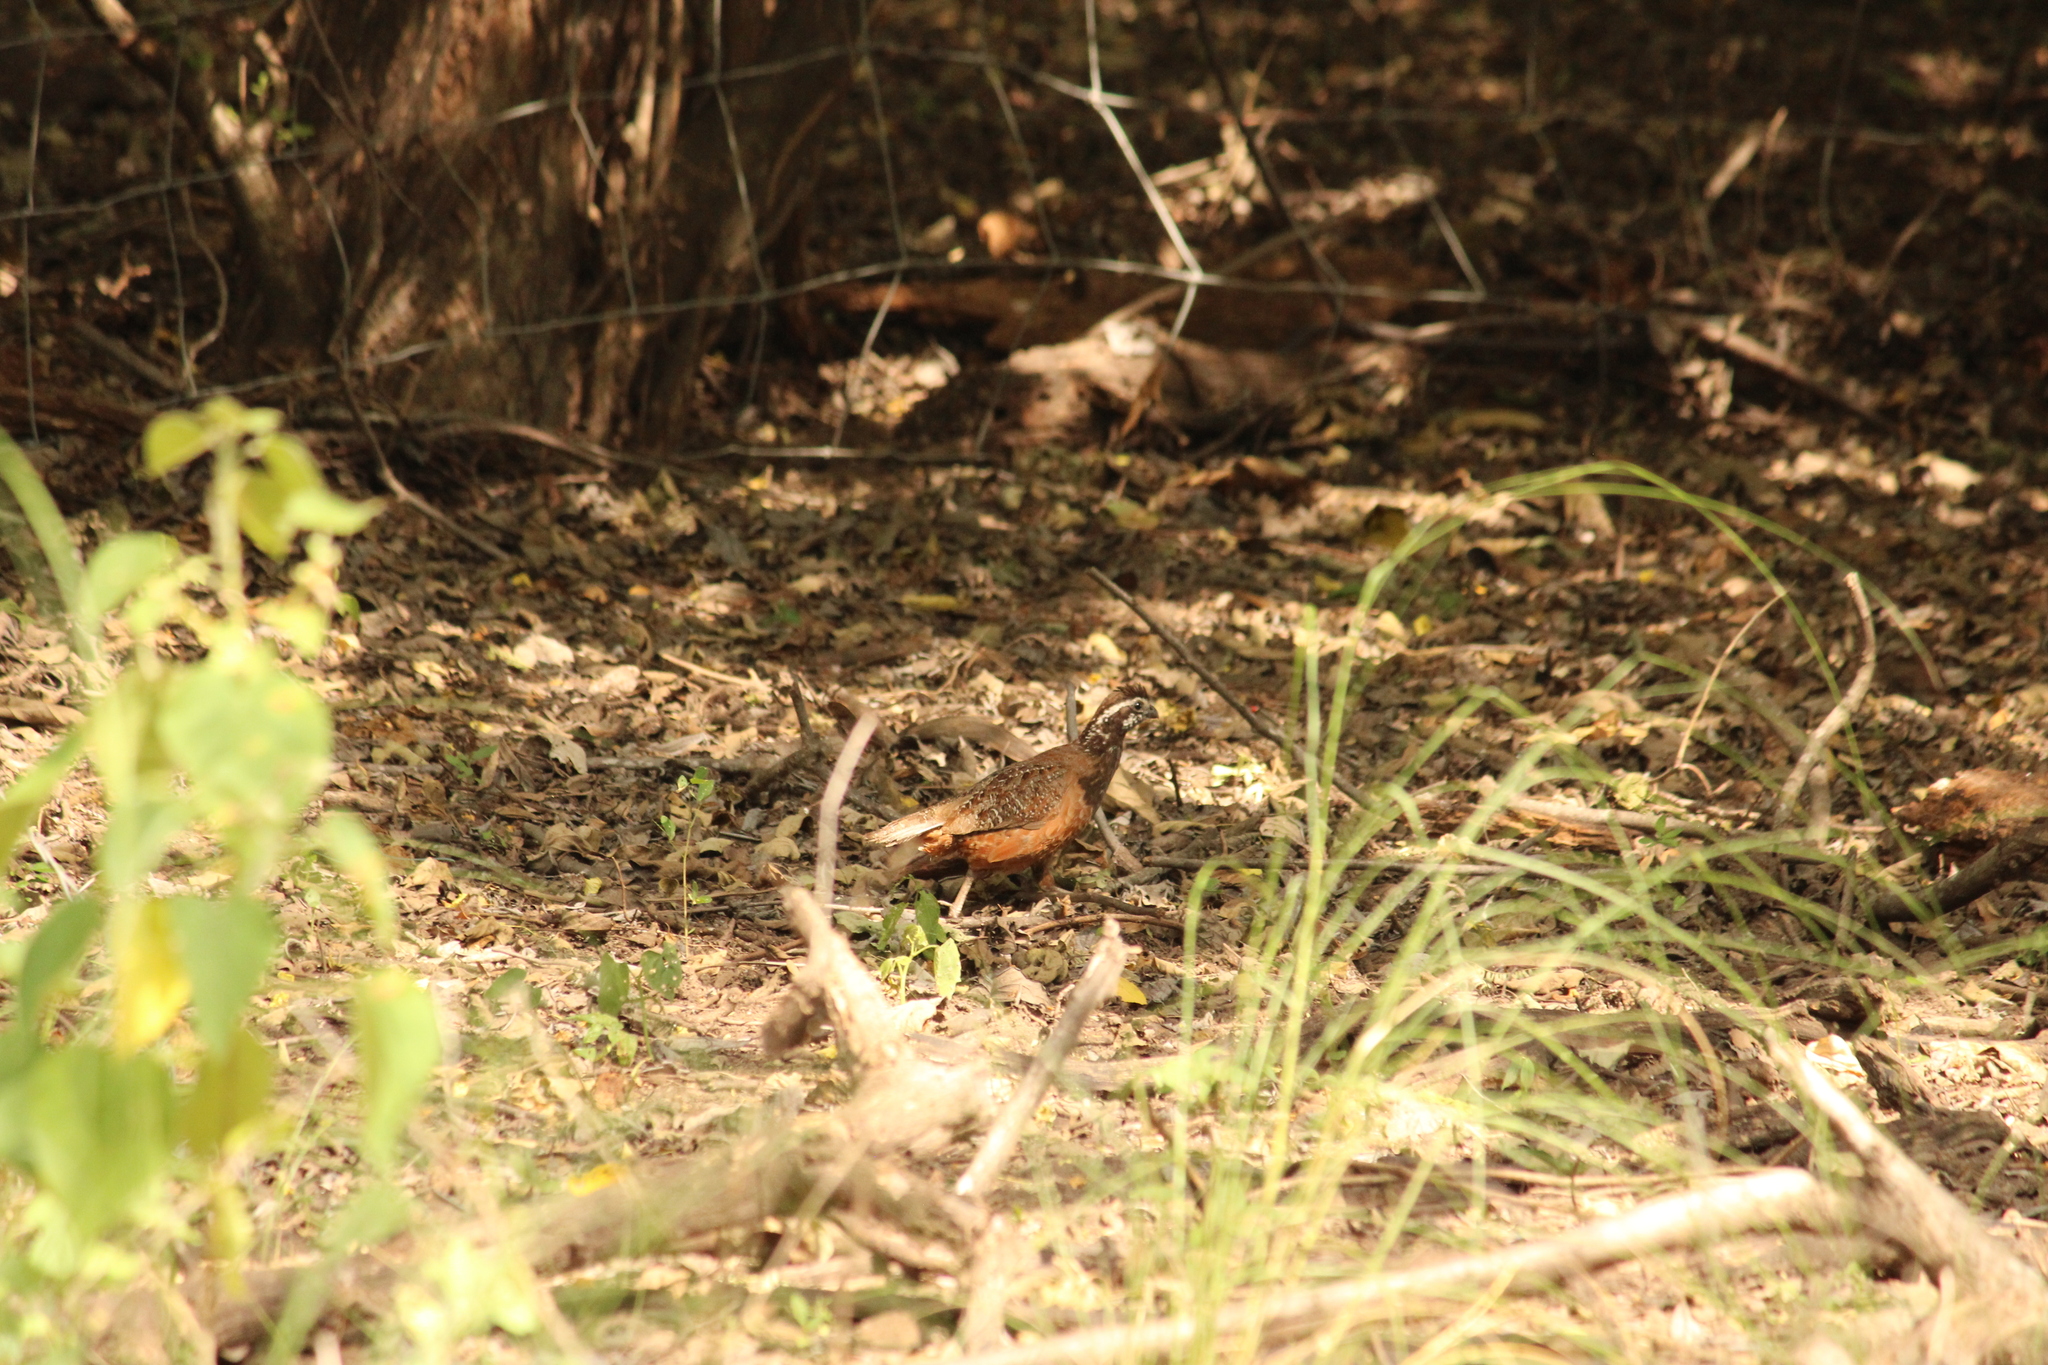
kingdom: Animalia
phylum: Chordata
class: Aves
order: Galliformes
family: Odontophoridae
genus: Colinus
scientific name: Colinus virginianus
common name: Northern bobwhite
